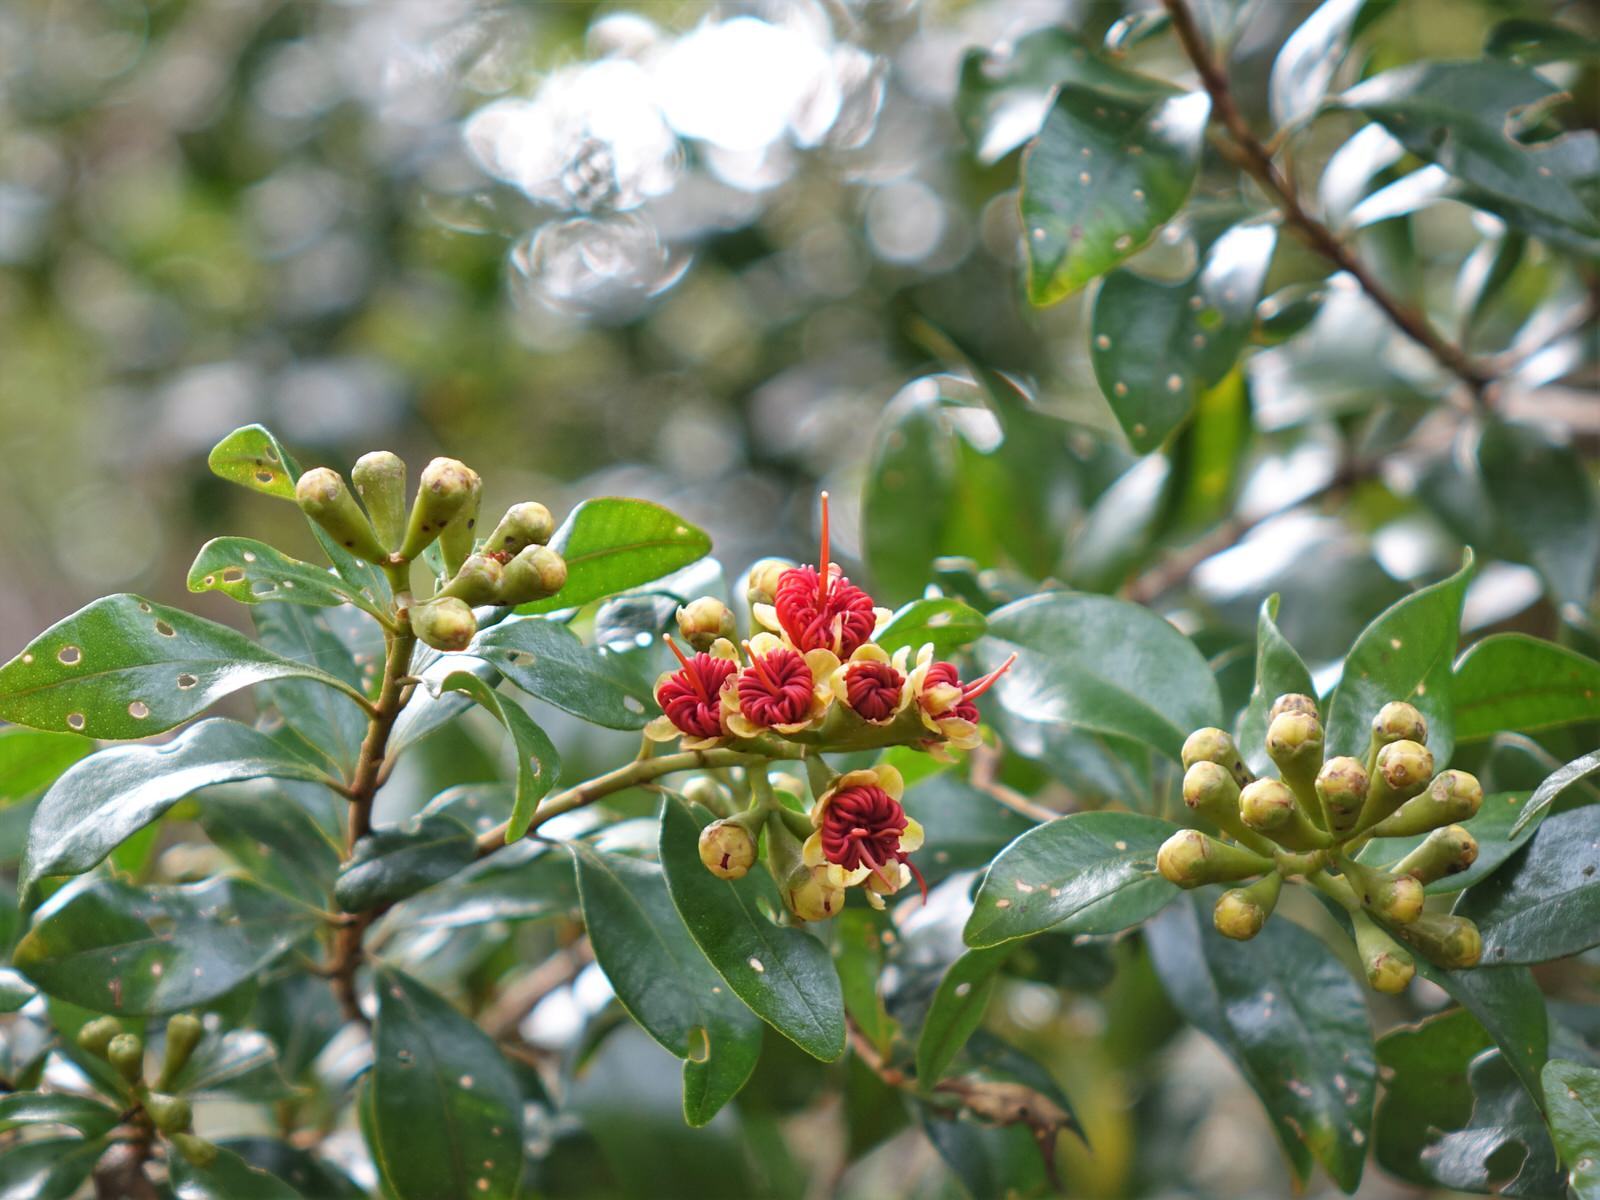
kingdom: Plantae
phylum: Tracheophyta
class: Magnoliopsida
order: Myrtales
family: Myrtaceae
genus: Metrosideros
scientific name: Metrosideros fulgens
